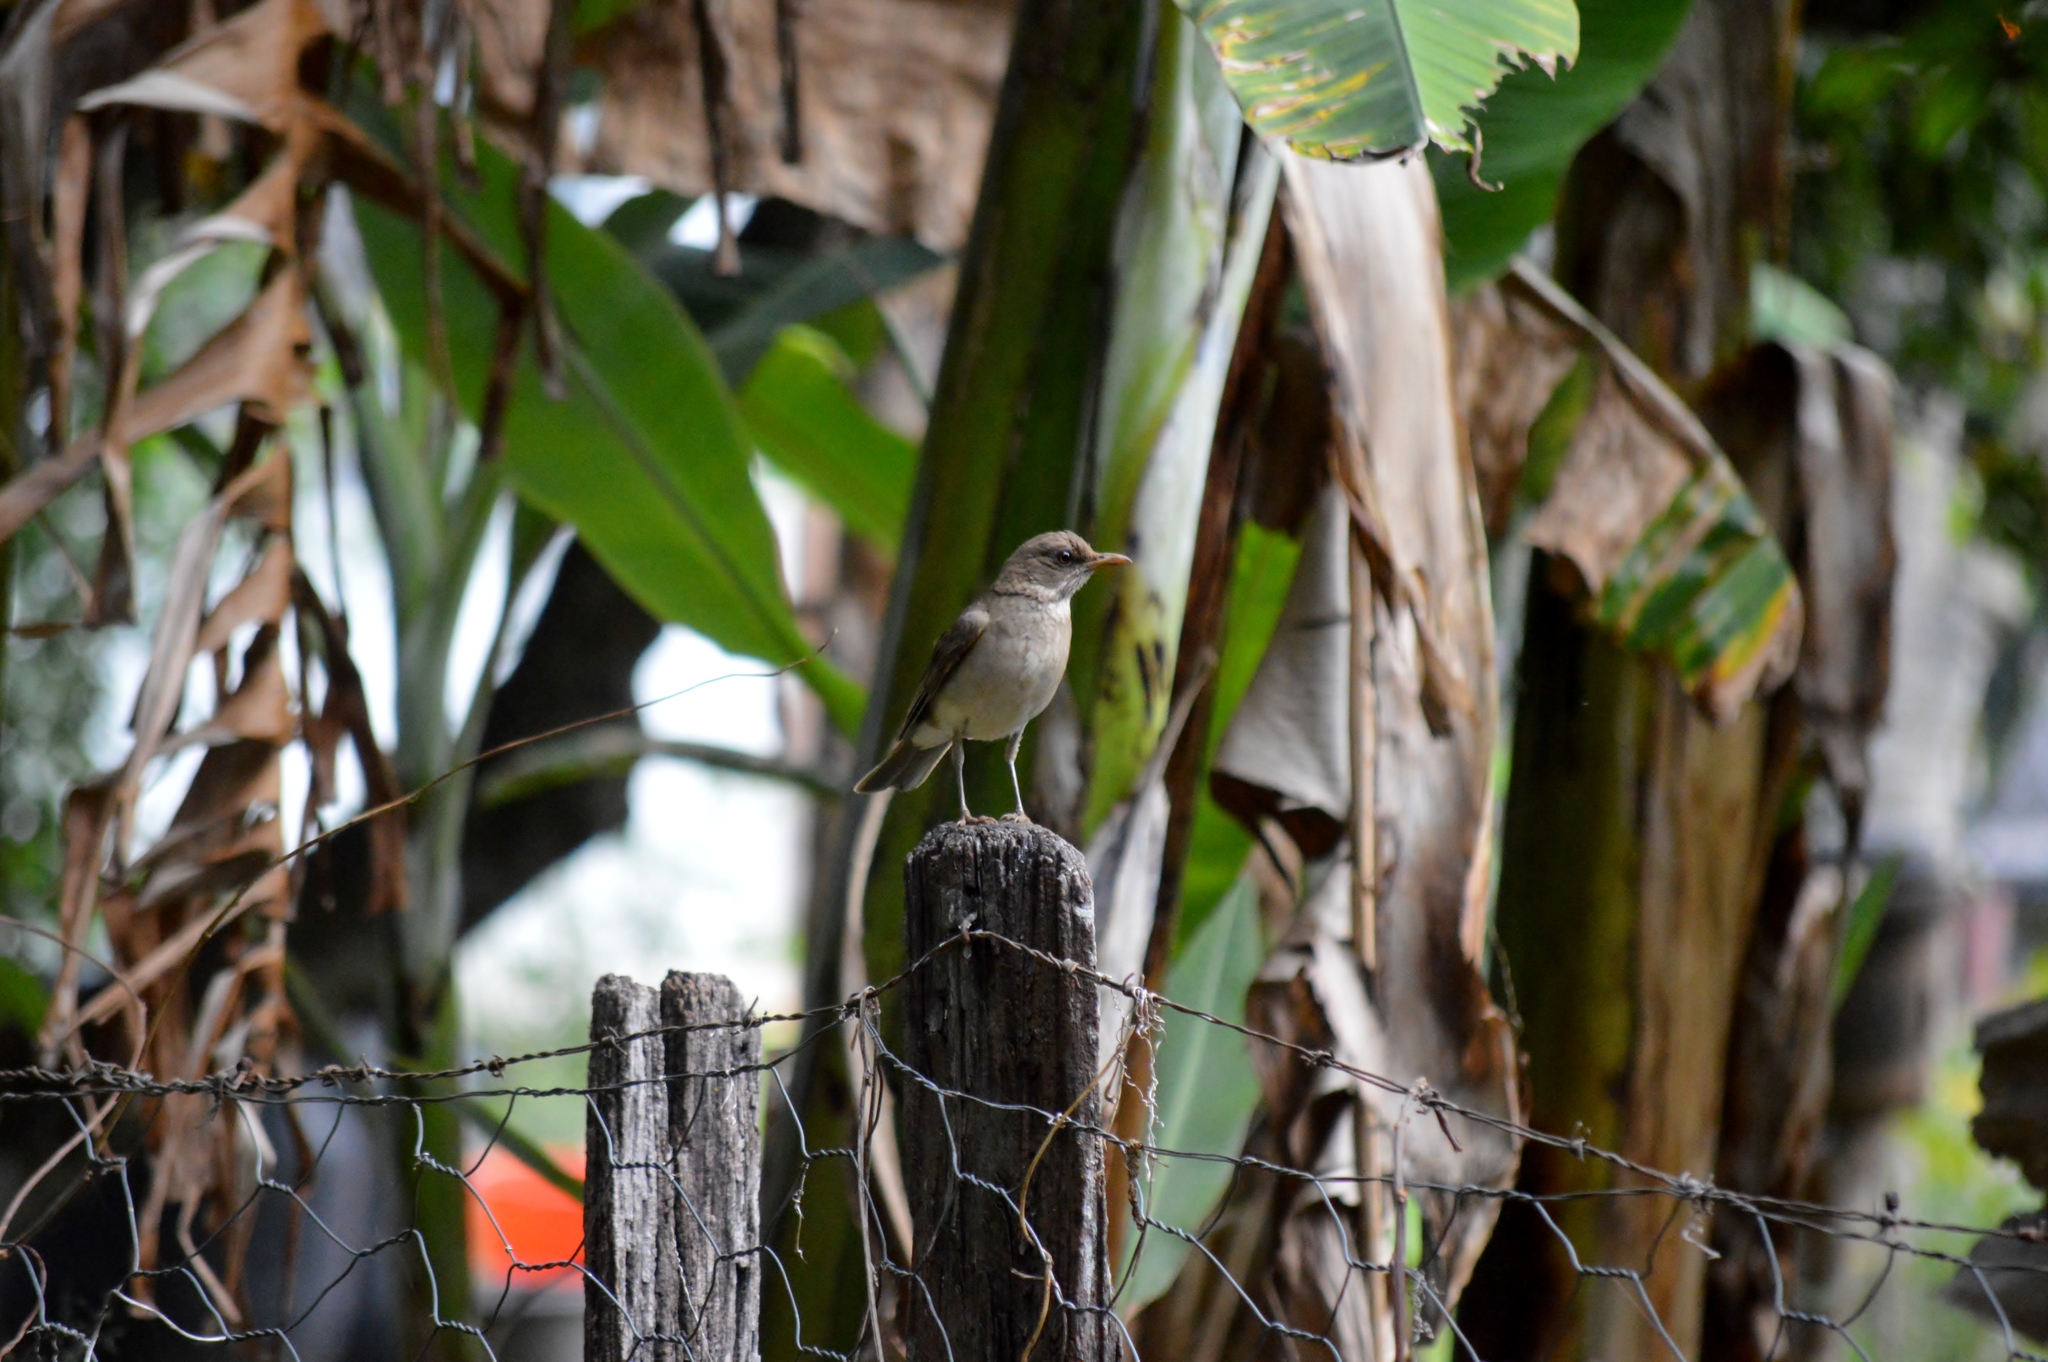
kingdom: Animalia
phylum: Chordata
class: Aves
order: Passeriformes
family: Turdidae
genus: Turdus
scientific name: Turdus leucomelas
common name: Pale-breasted thrush
